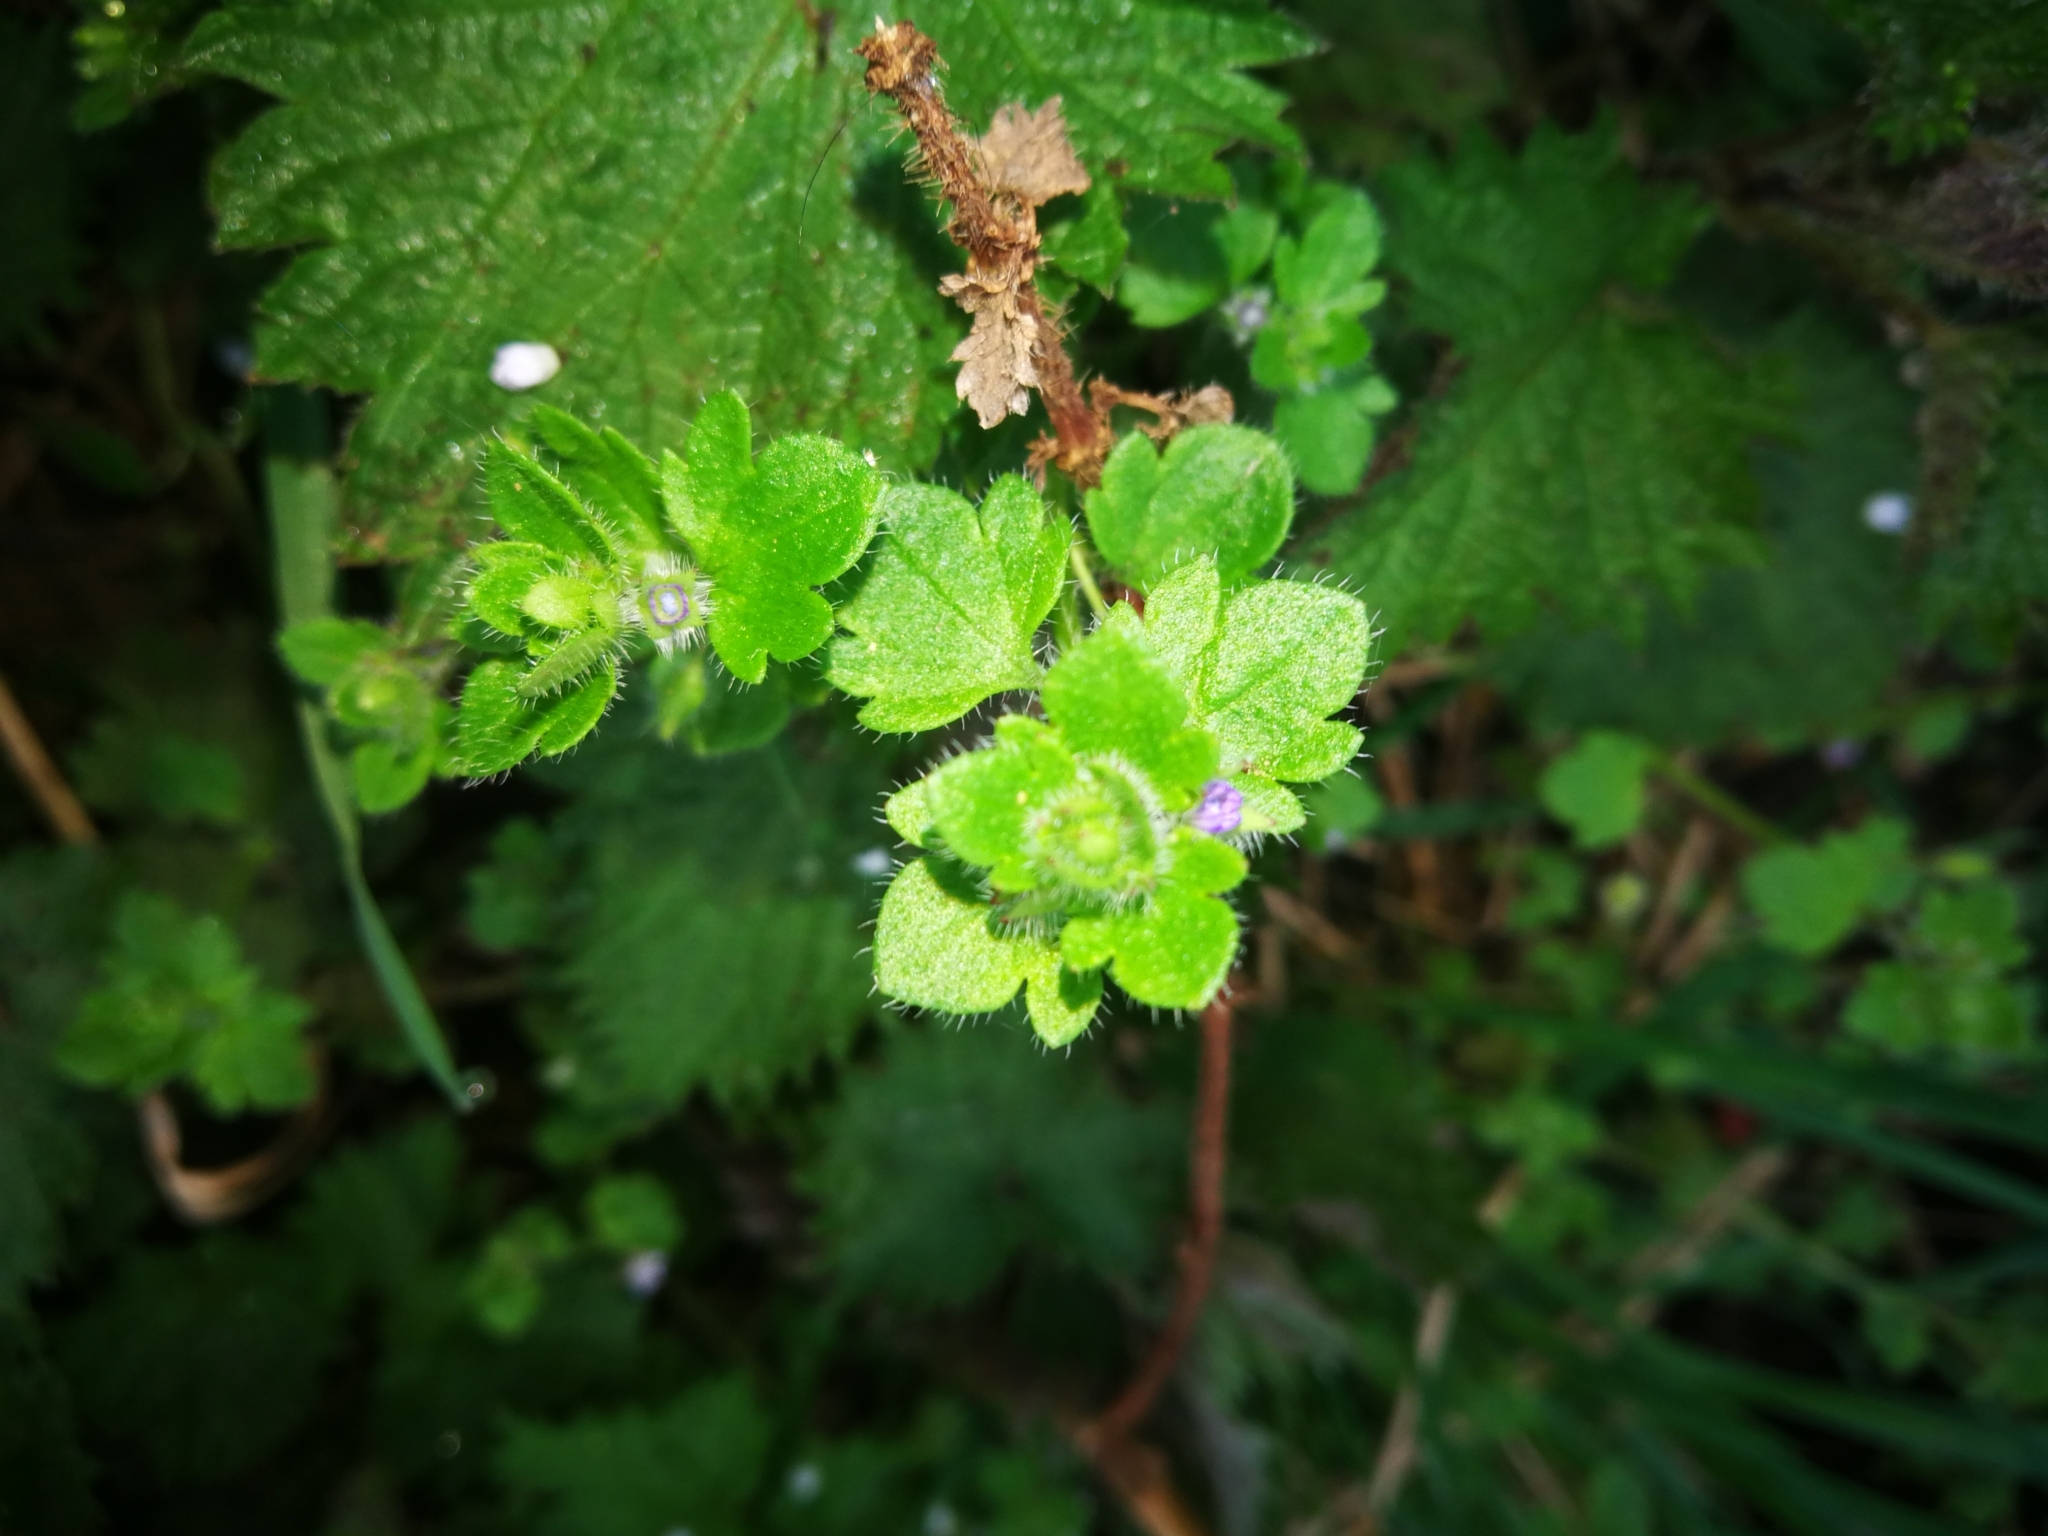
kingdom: Plantae
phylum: Tracheophyta
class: Magnoliopsida
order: Lamiales
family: Plantaginaceae
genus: Veronica
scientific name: Veronica hederifolia
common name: Ivy-leaved speedwell
